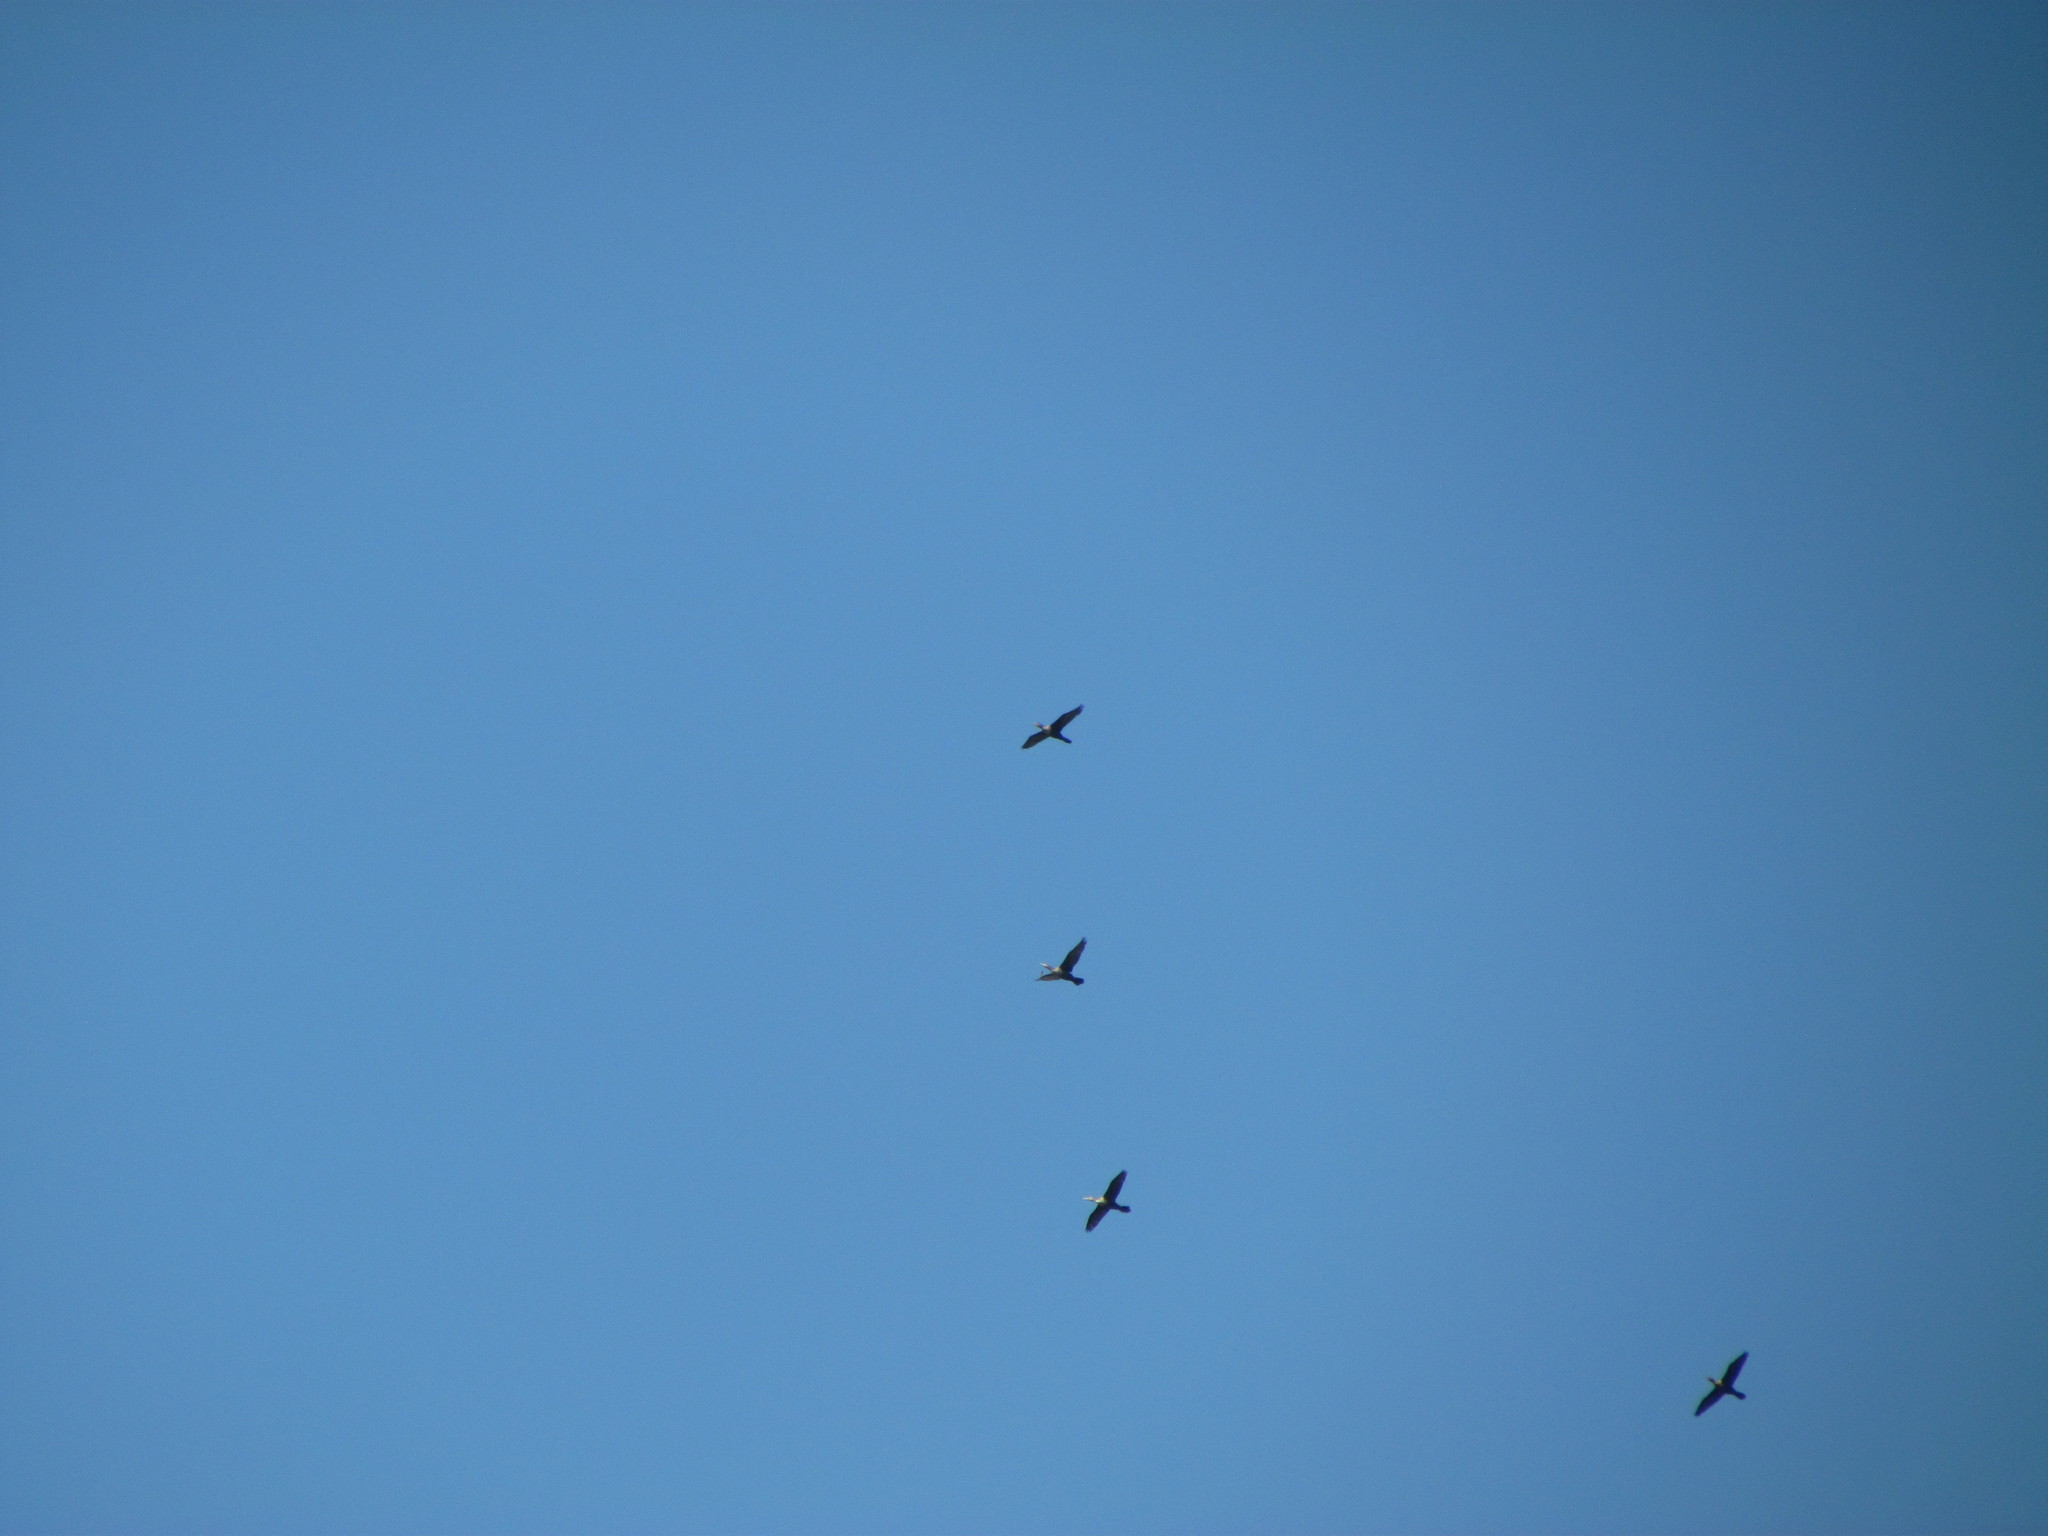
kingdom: Animalia
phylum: Chordata
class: Aves
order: Suliformes
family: Phalacrocoracidae
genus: Phalacrocorax
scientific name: Phalacrocorax brasilianus
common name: Neotropic cormorant
